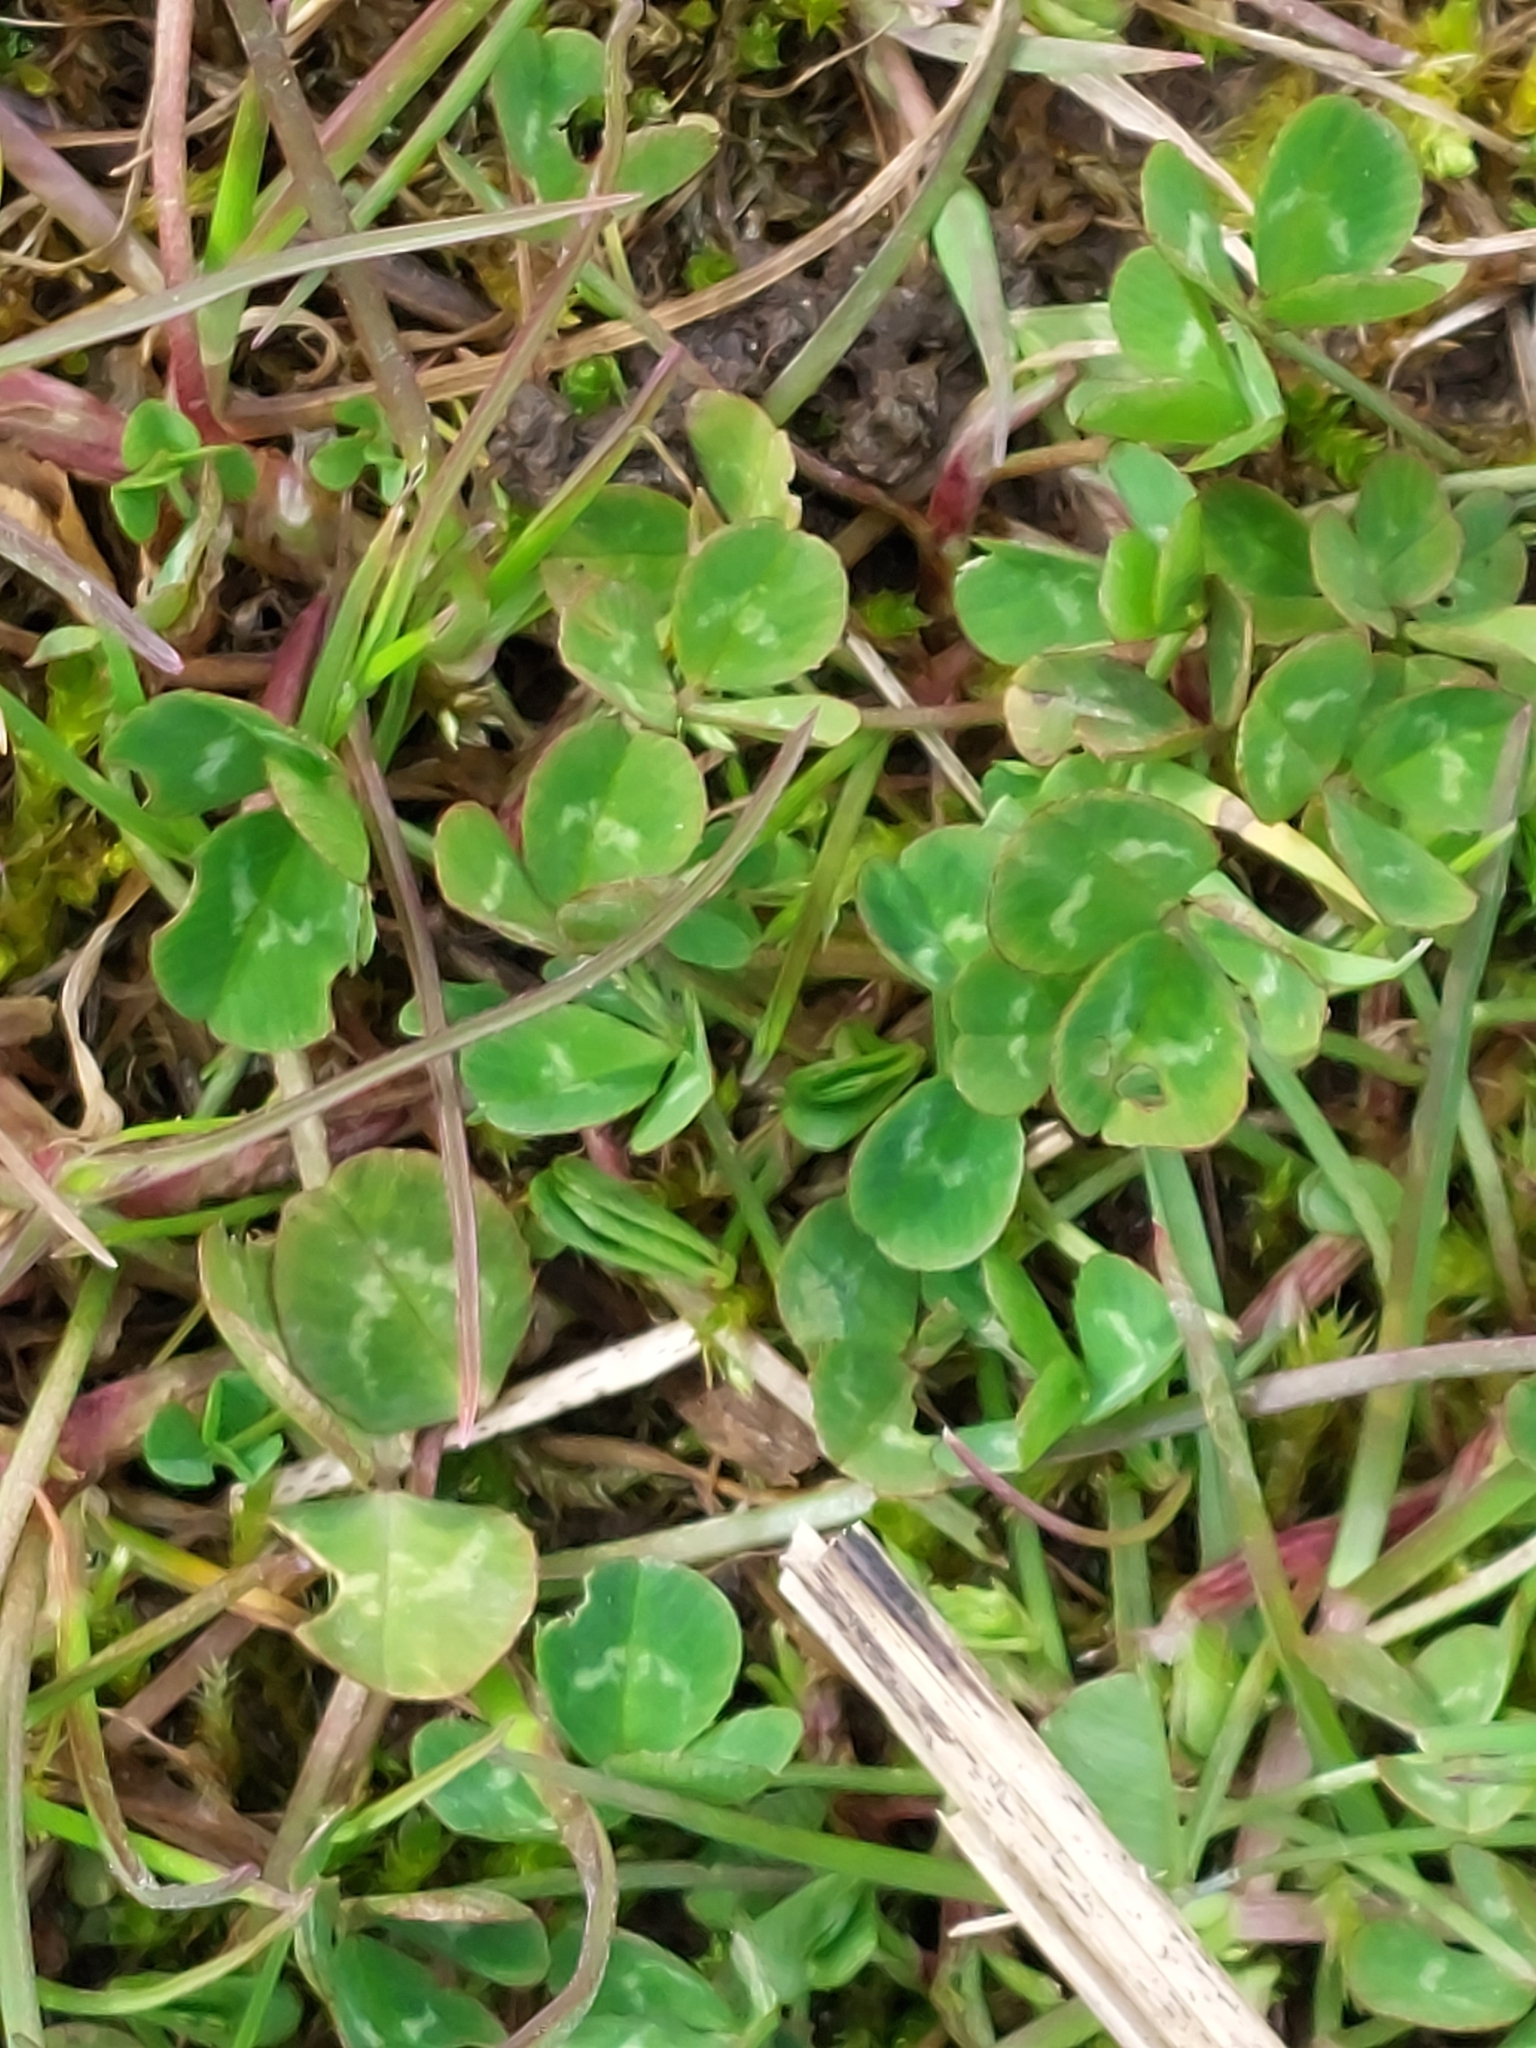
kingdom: Plantae
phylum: Tracheophyta
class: Magnoliopsida
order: Fabales
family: Fabaceae
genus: Trifolium
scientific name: Trifolium repens
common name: White clover
